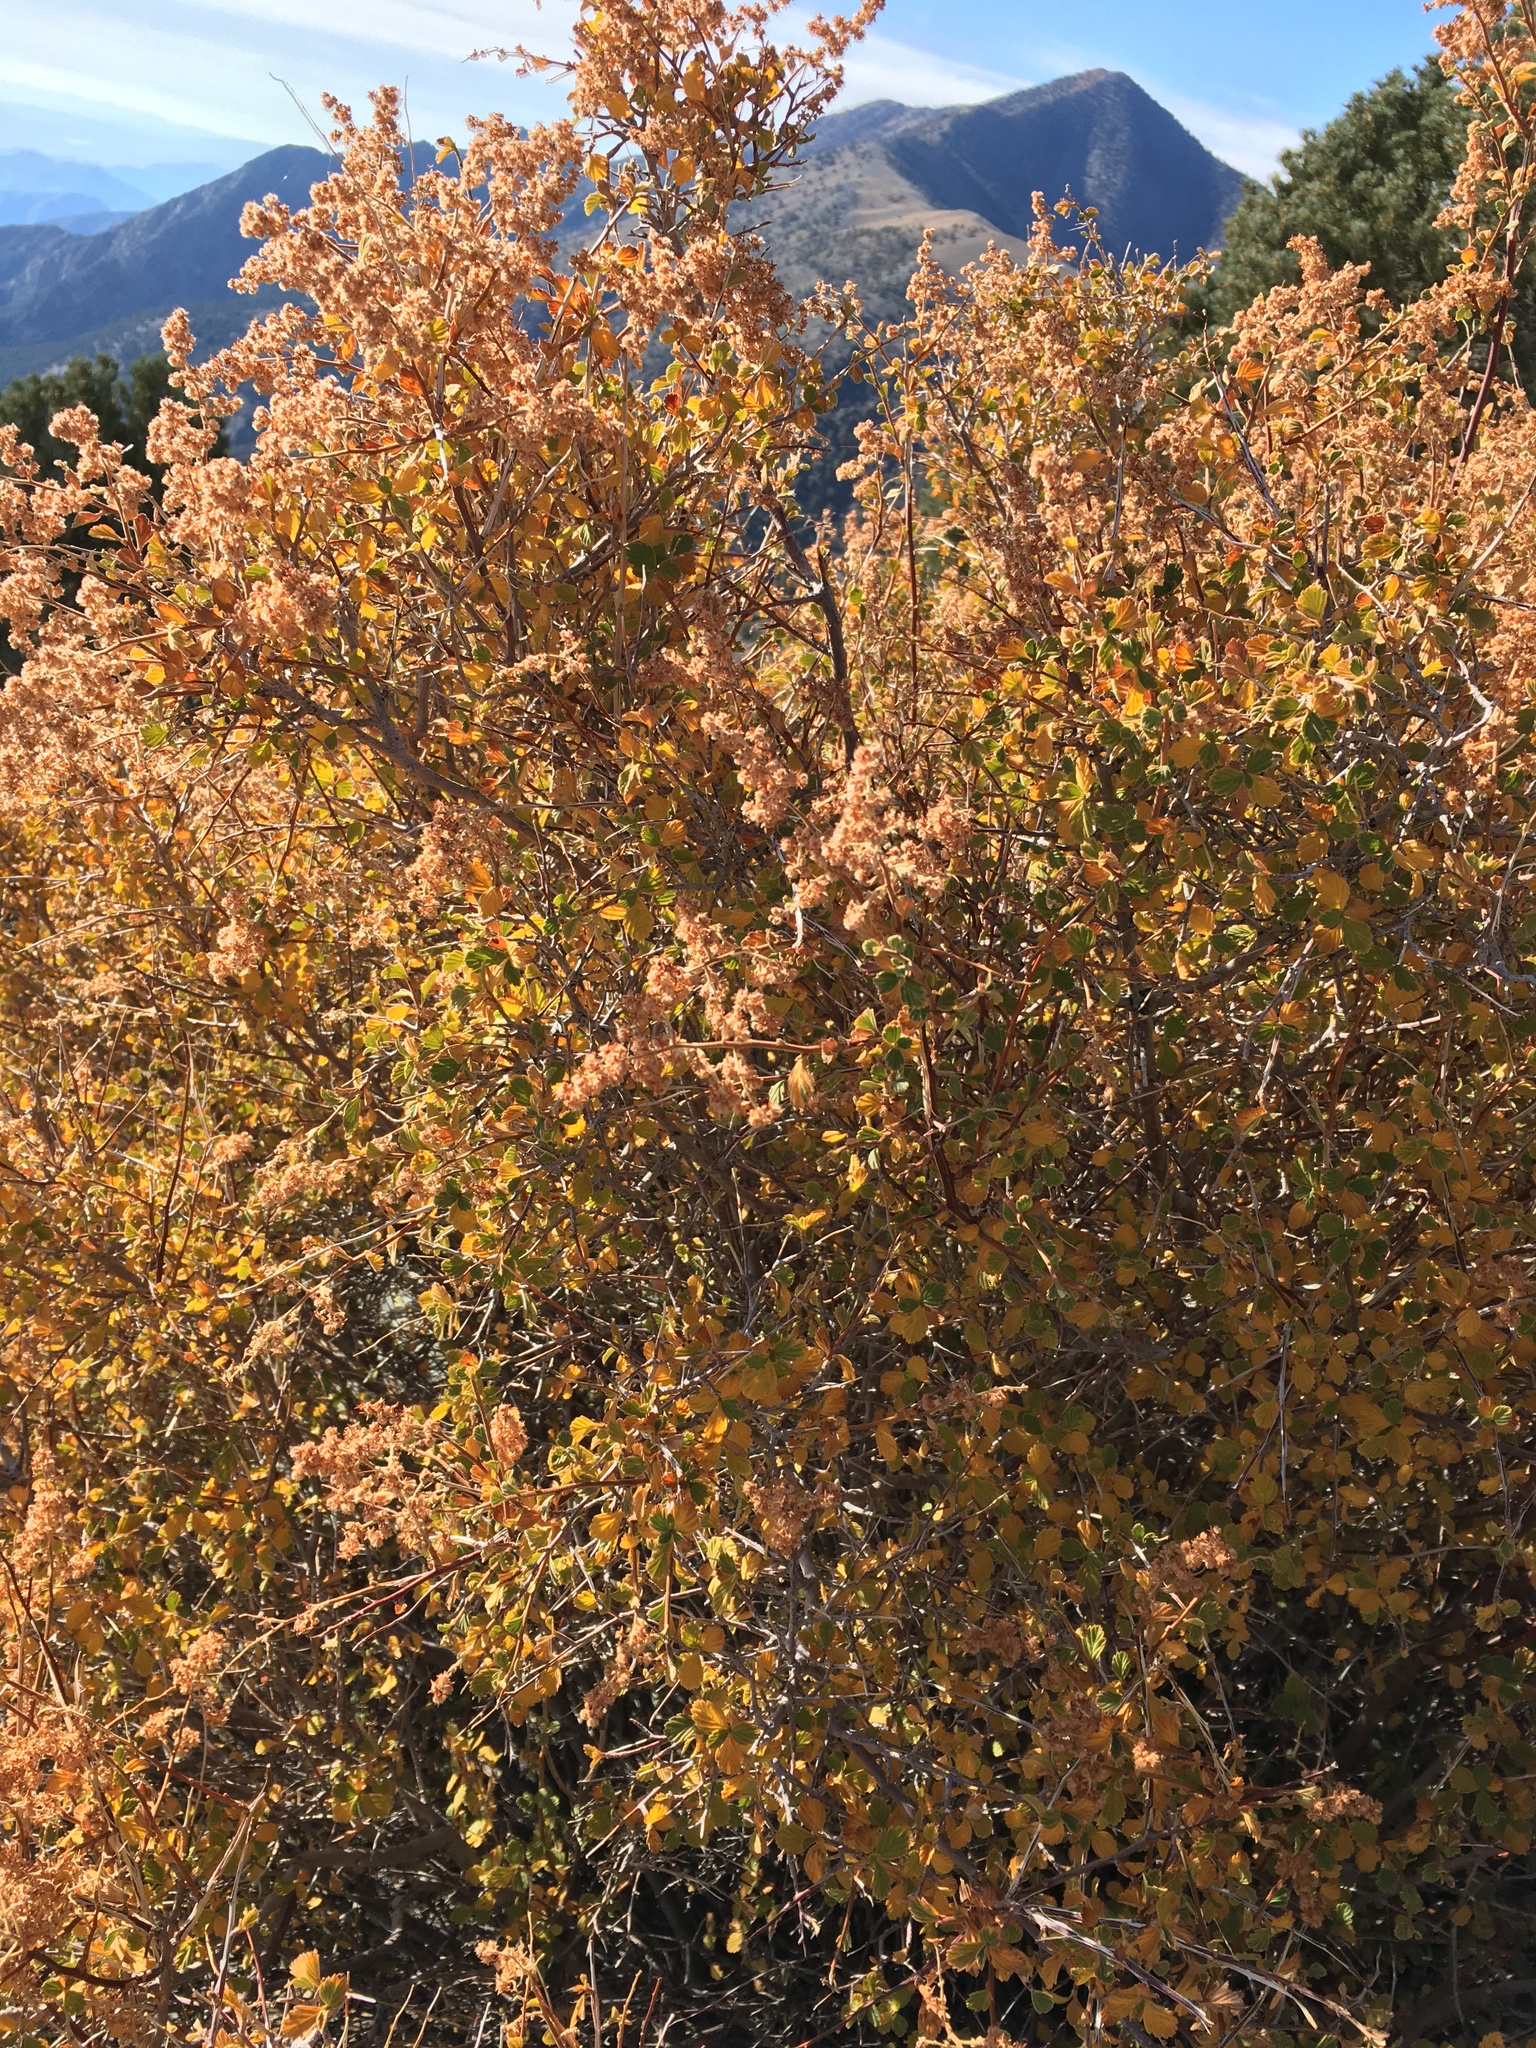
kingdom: Plantae
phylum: Tracheophyta
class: Magnoliopsida
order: Rosales
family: Rosaceae
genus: Holodiscus
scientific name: Holodiscus discolor
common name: Oceanspray
